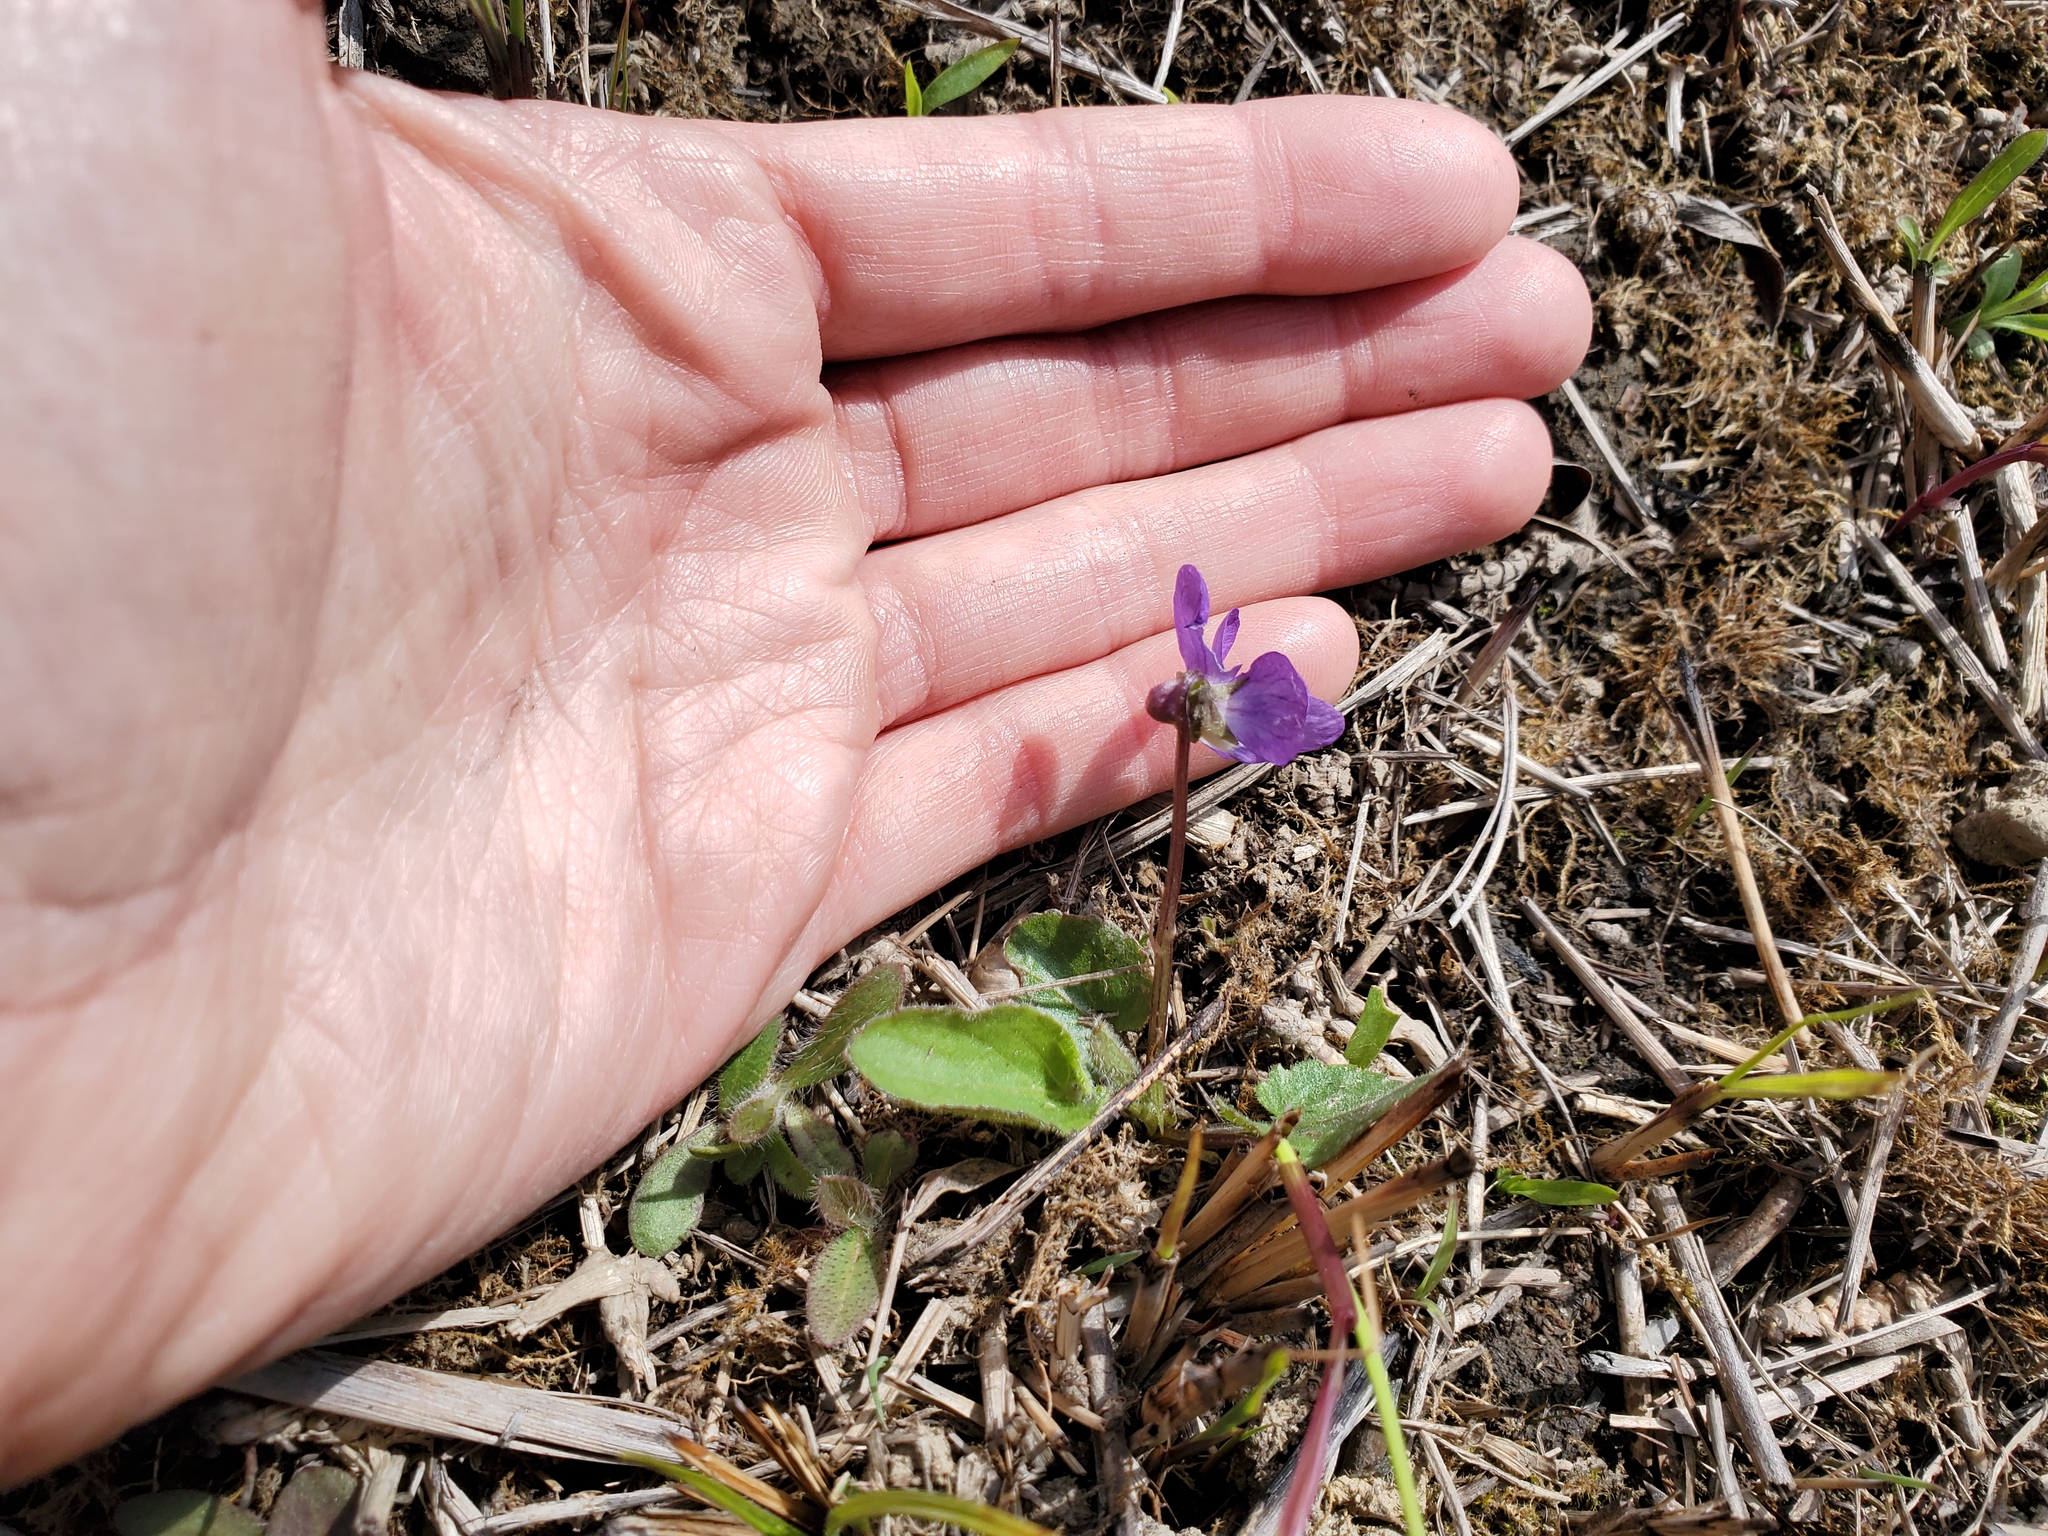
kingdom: Plantae
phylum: Tracheophyta
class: Magnoliopsida
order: Malpighiales
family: Violaceae
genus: Viola
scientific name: Viola sagittata
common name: Arrowhead violet
